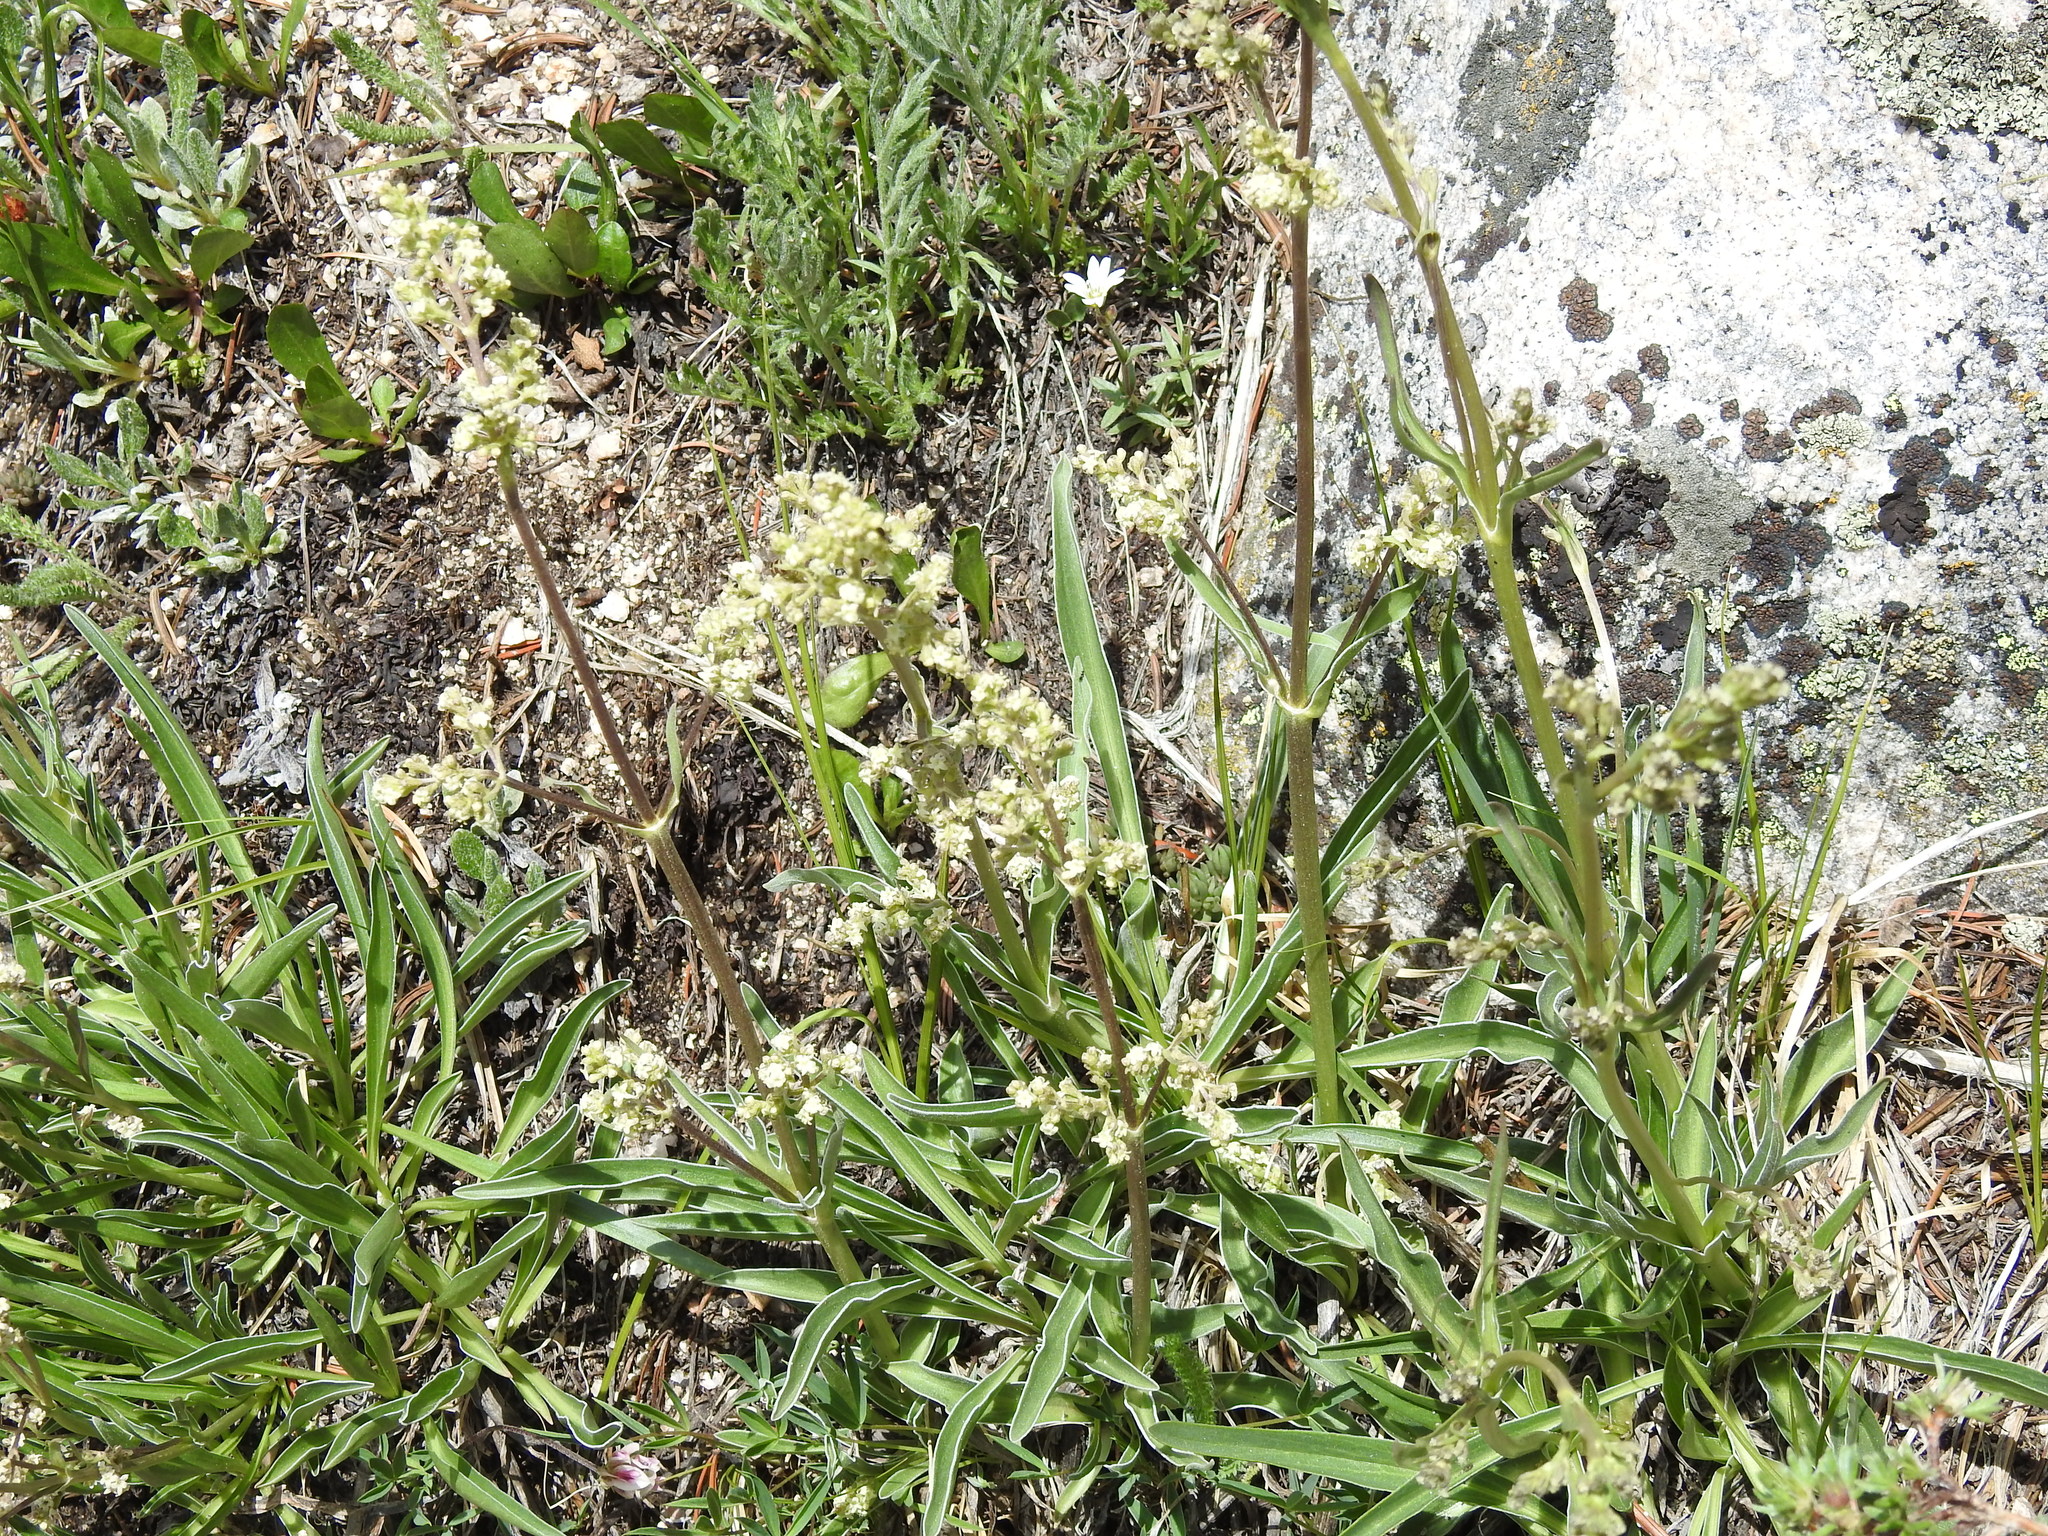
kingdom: Plantae
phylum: Tracheophyta
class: Magnoliopsida
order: Dipsacales
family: Caprifoliaceae
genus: Valeriana
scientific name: Valeriana edulis
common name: Taproot valerian
